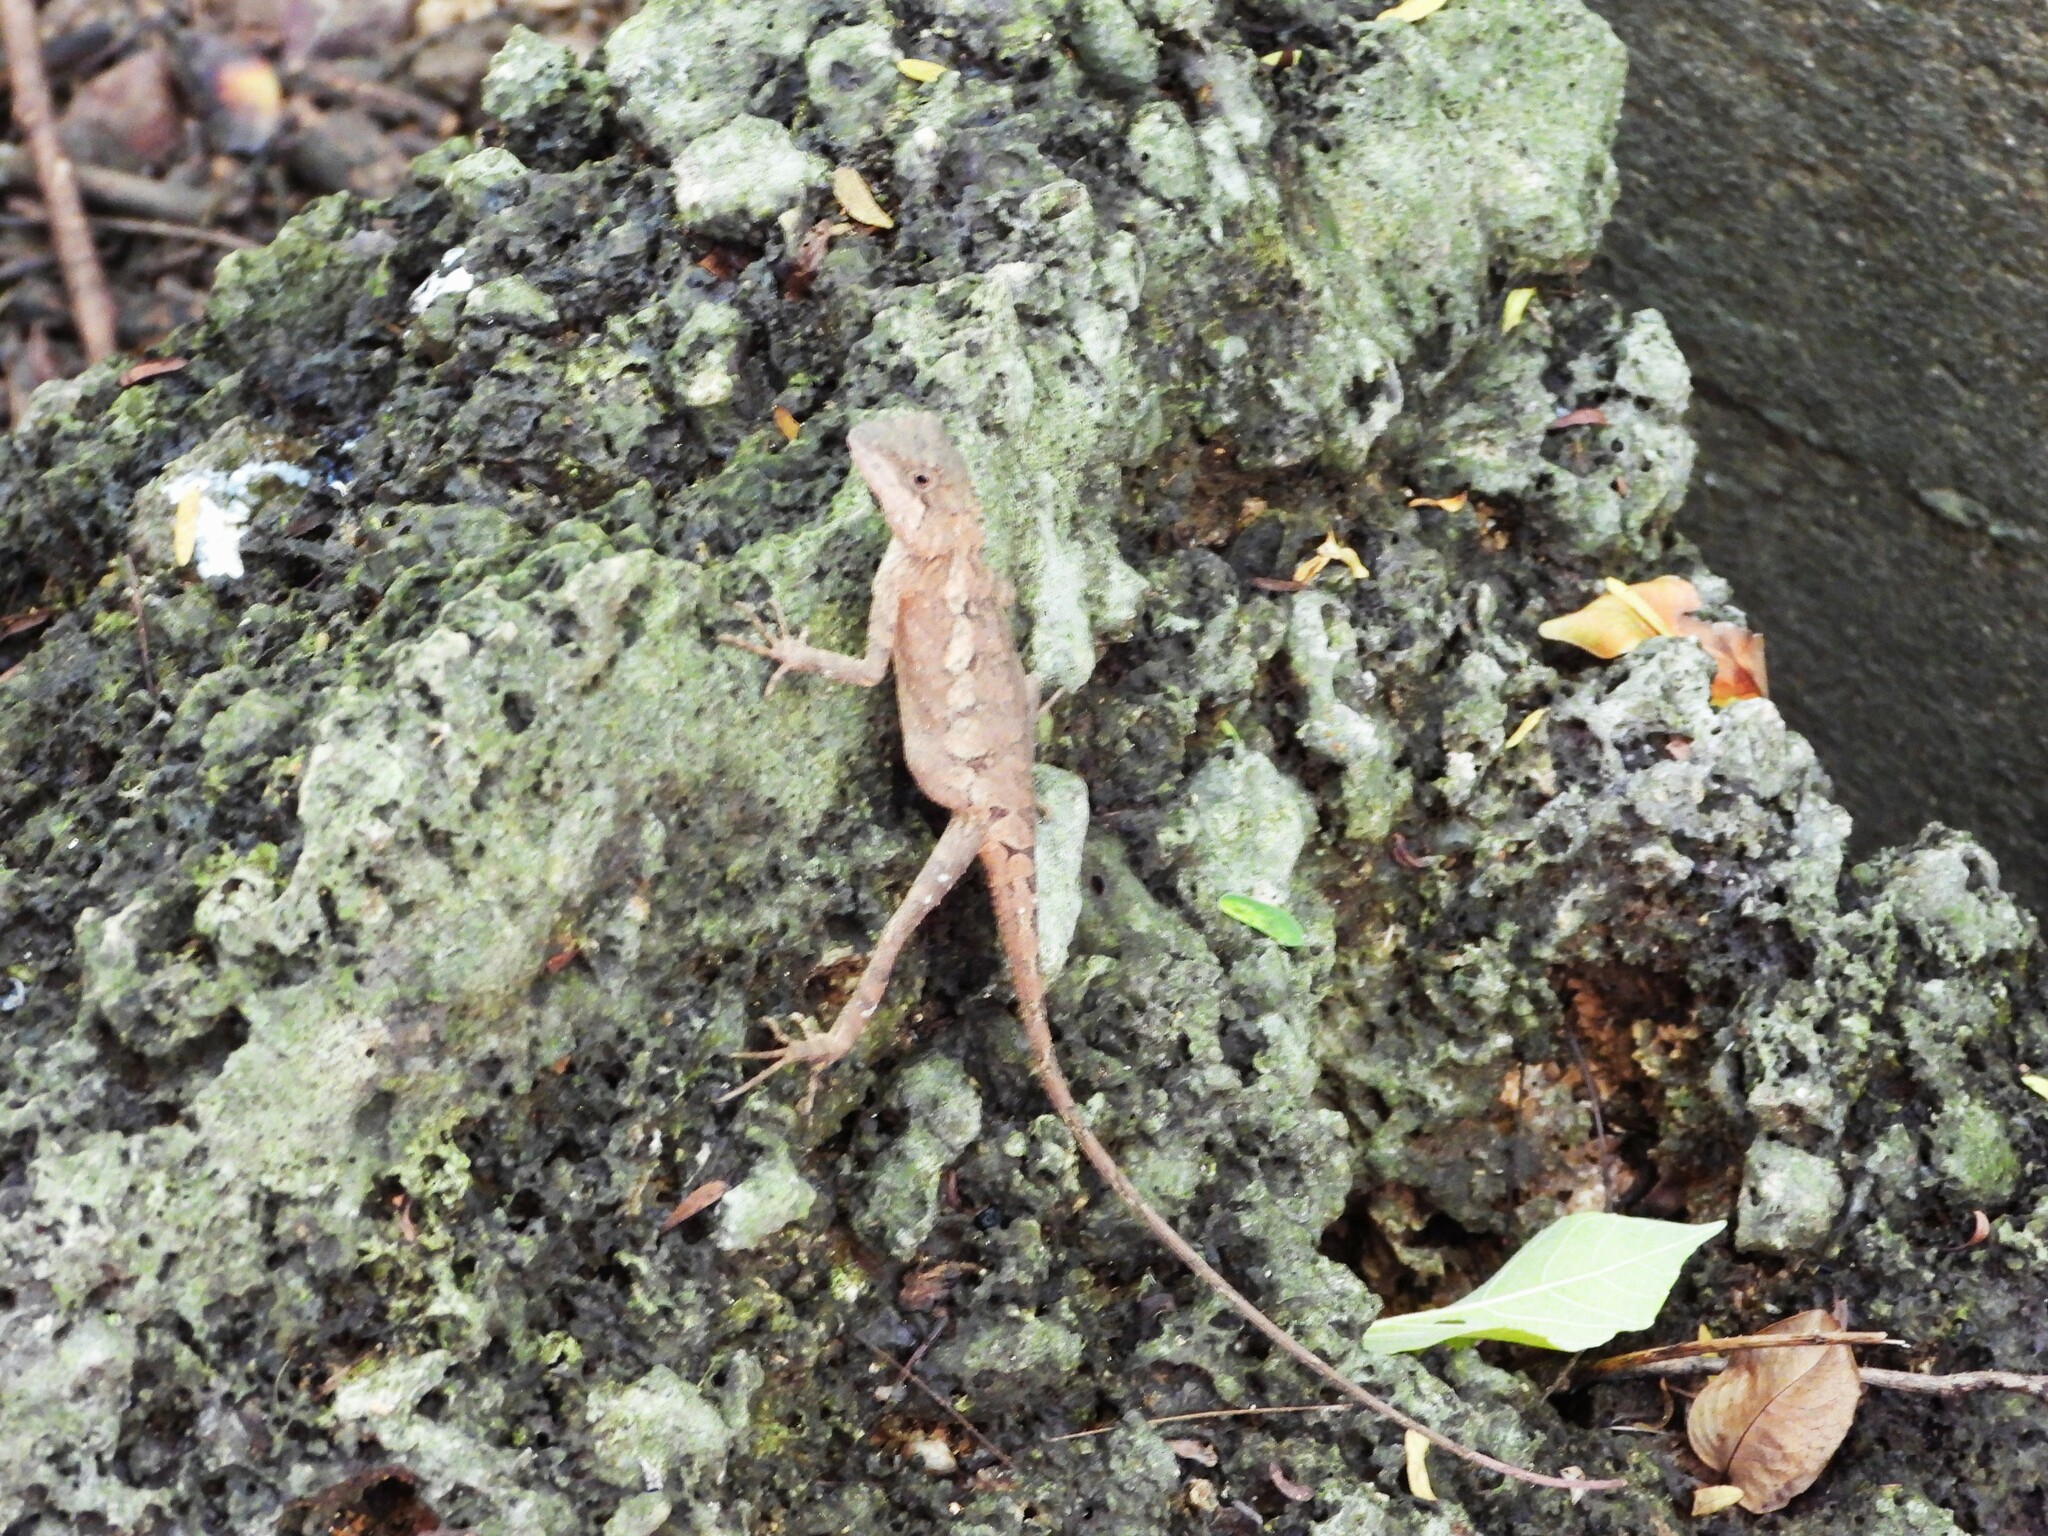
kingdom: Animalia
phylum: Chordata
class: Squamata
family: Agamidae
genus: Diploderma
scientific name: Diploderma swinhonis
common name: Taiwan japalure
